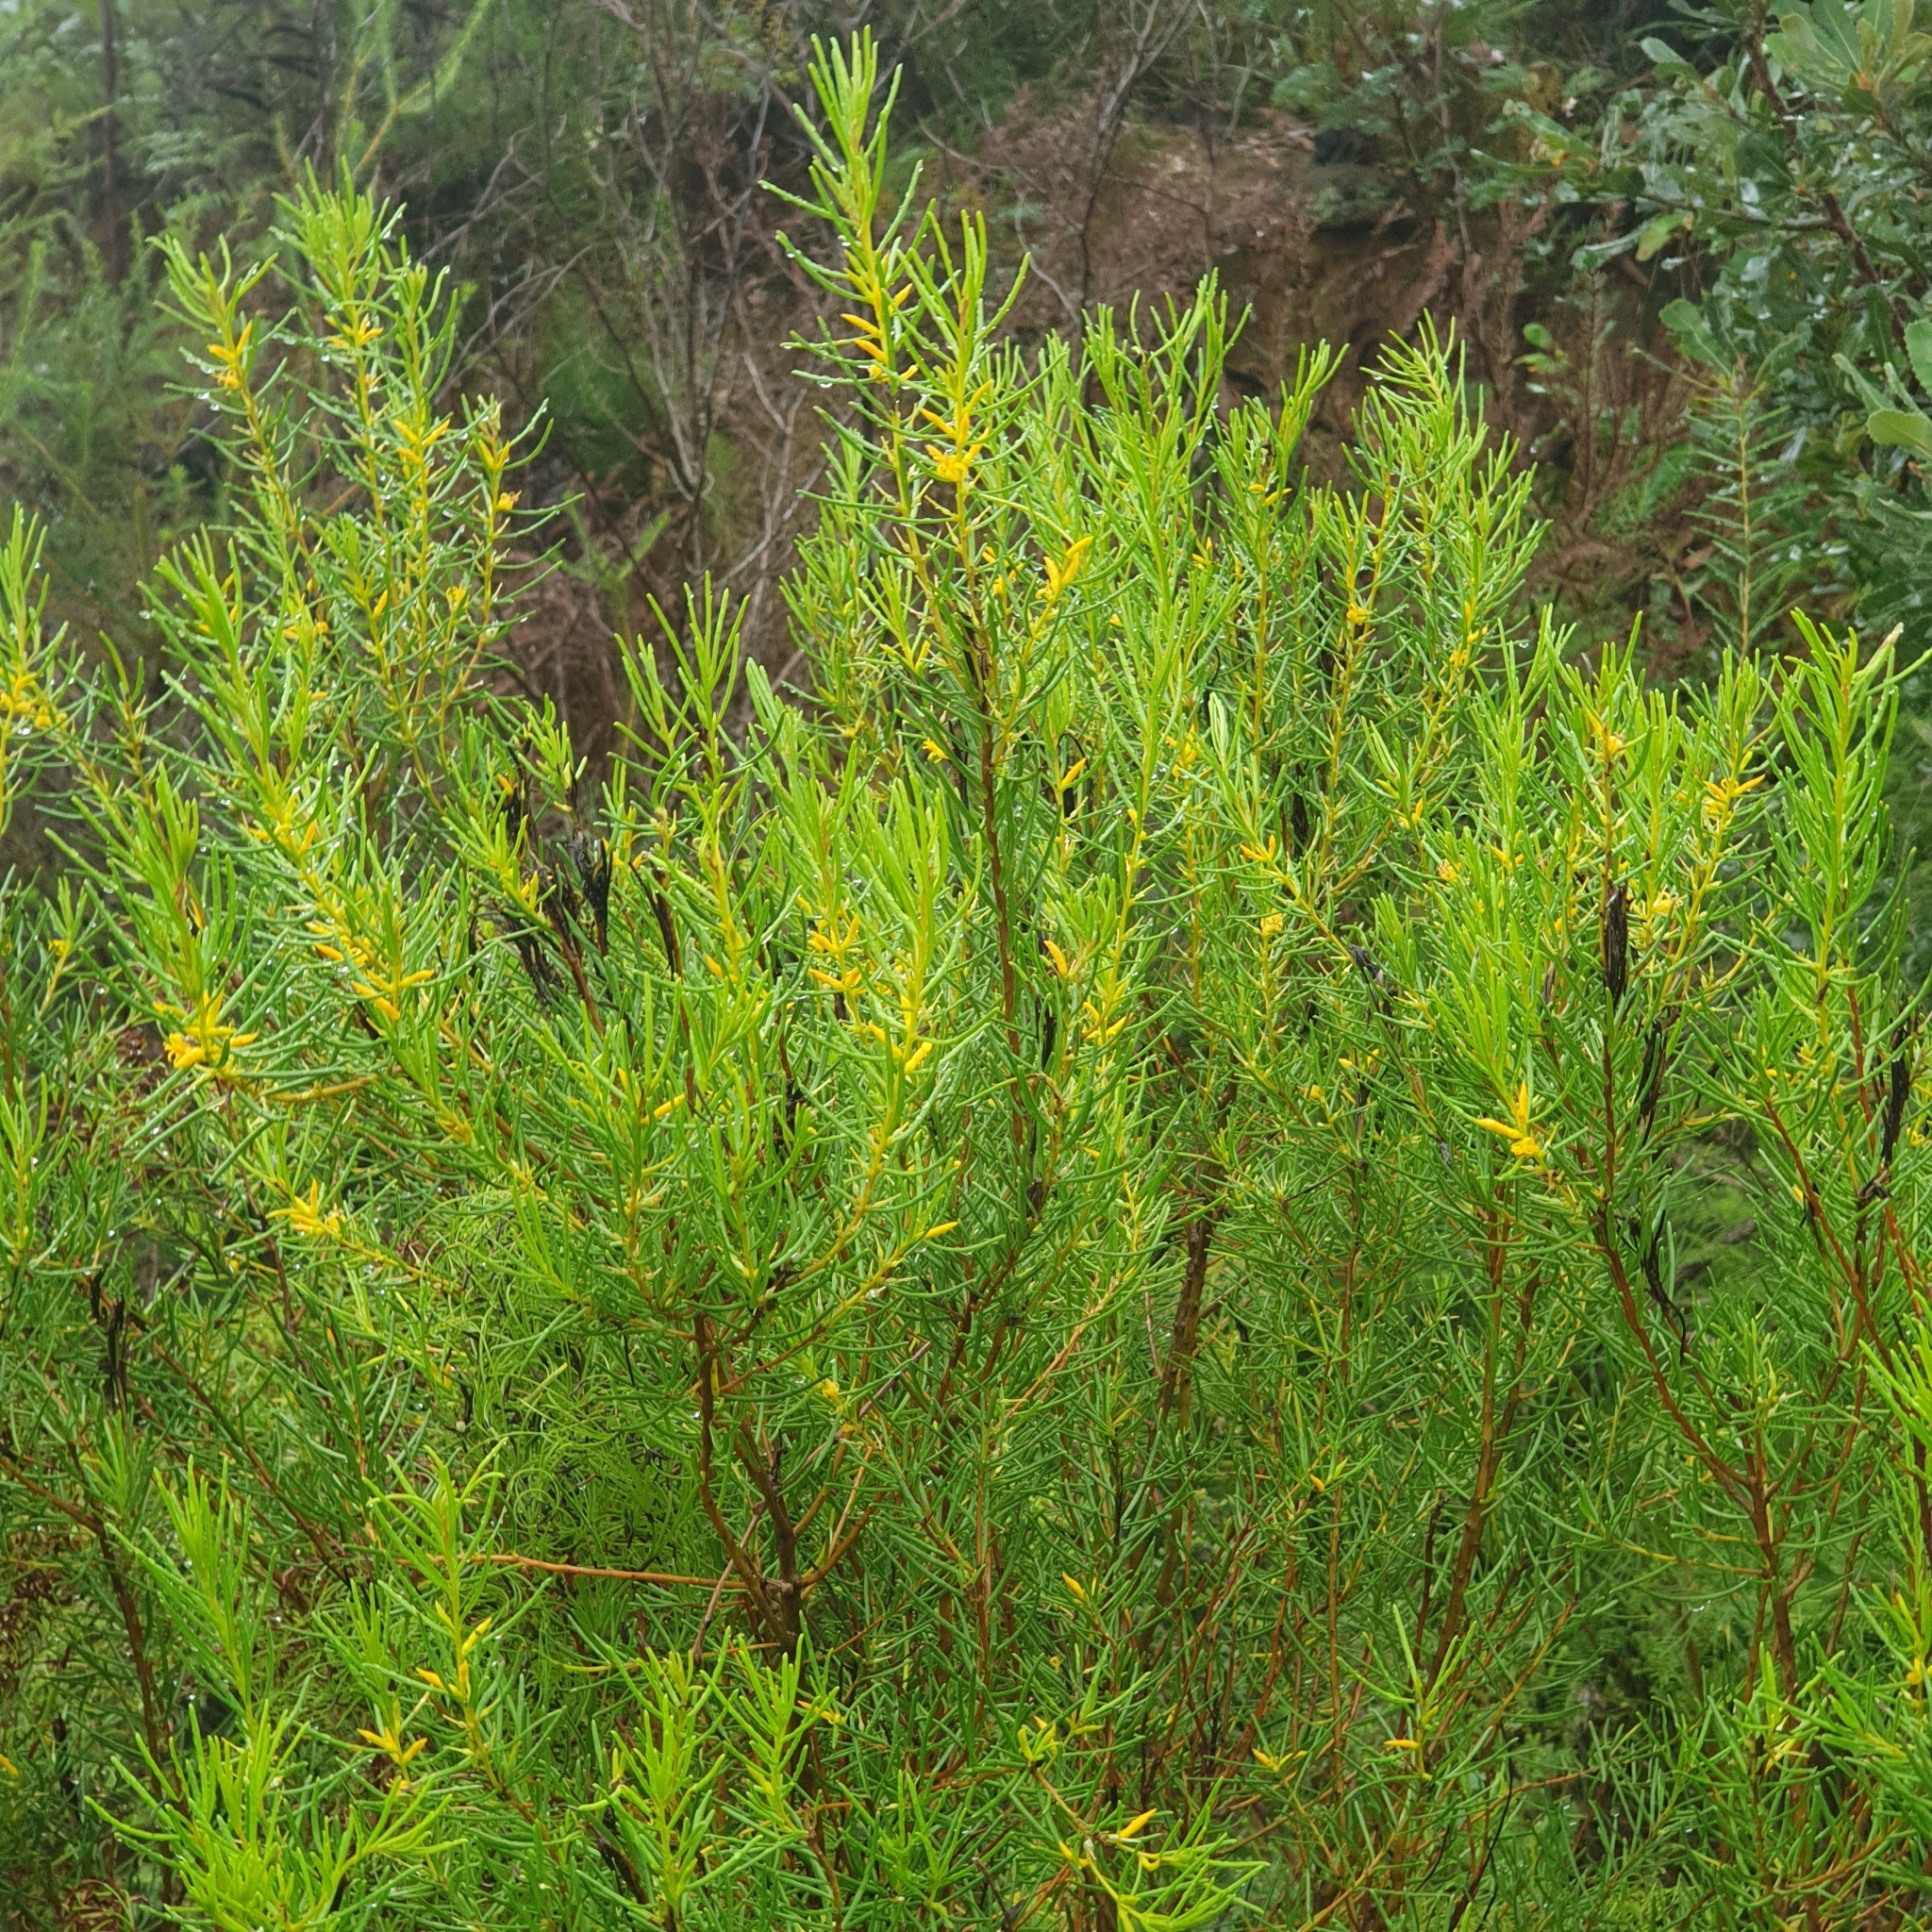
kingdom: Plantae
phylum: Tracheophyta
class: Magnoliopsida
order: Proteales
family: Proteaceae
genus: Persoonia
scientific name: Persoonia mollis
